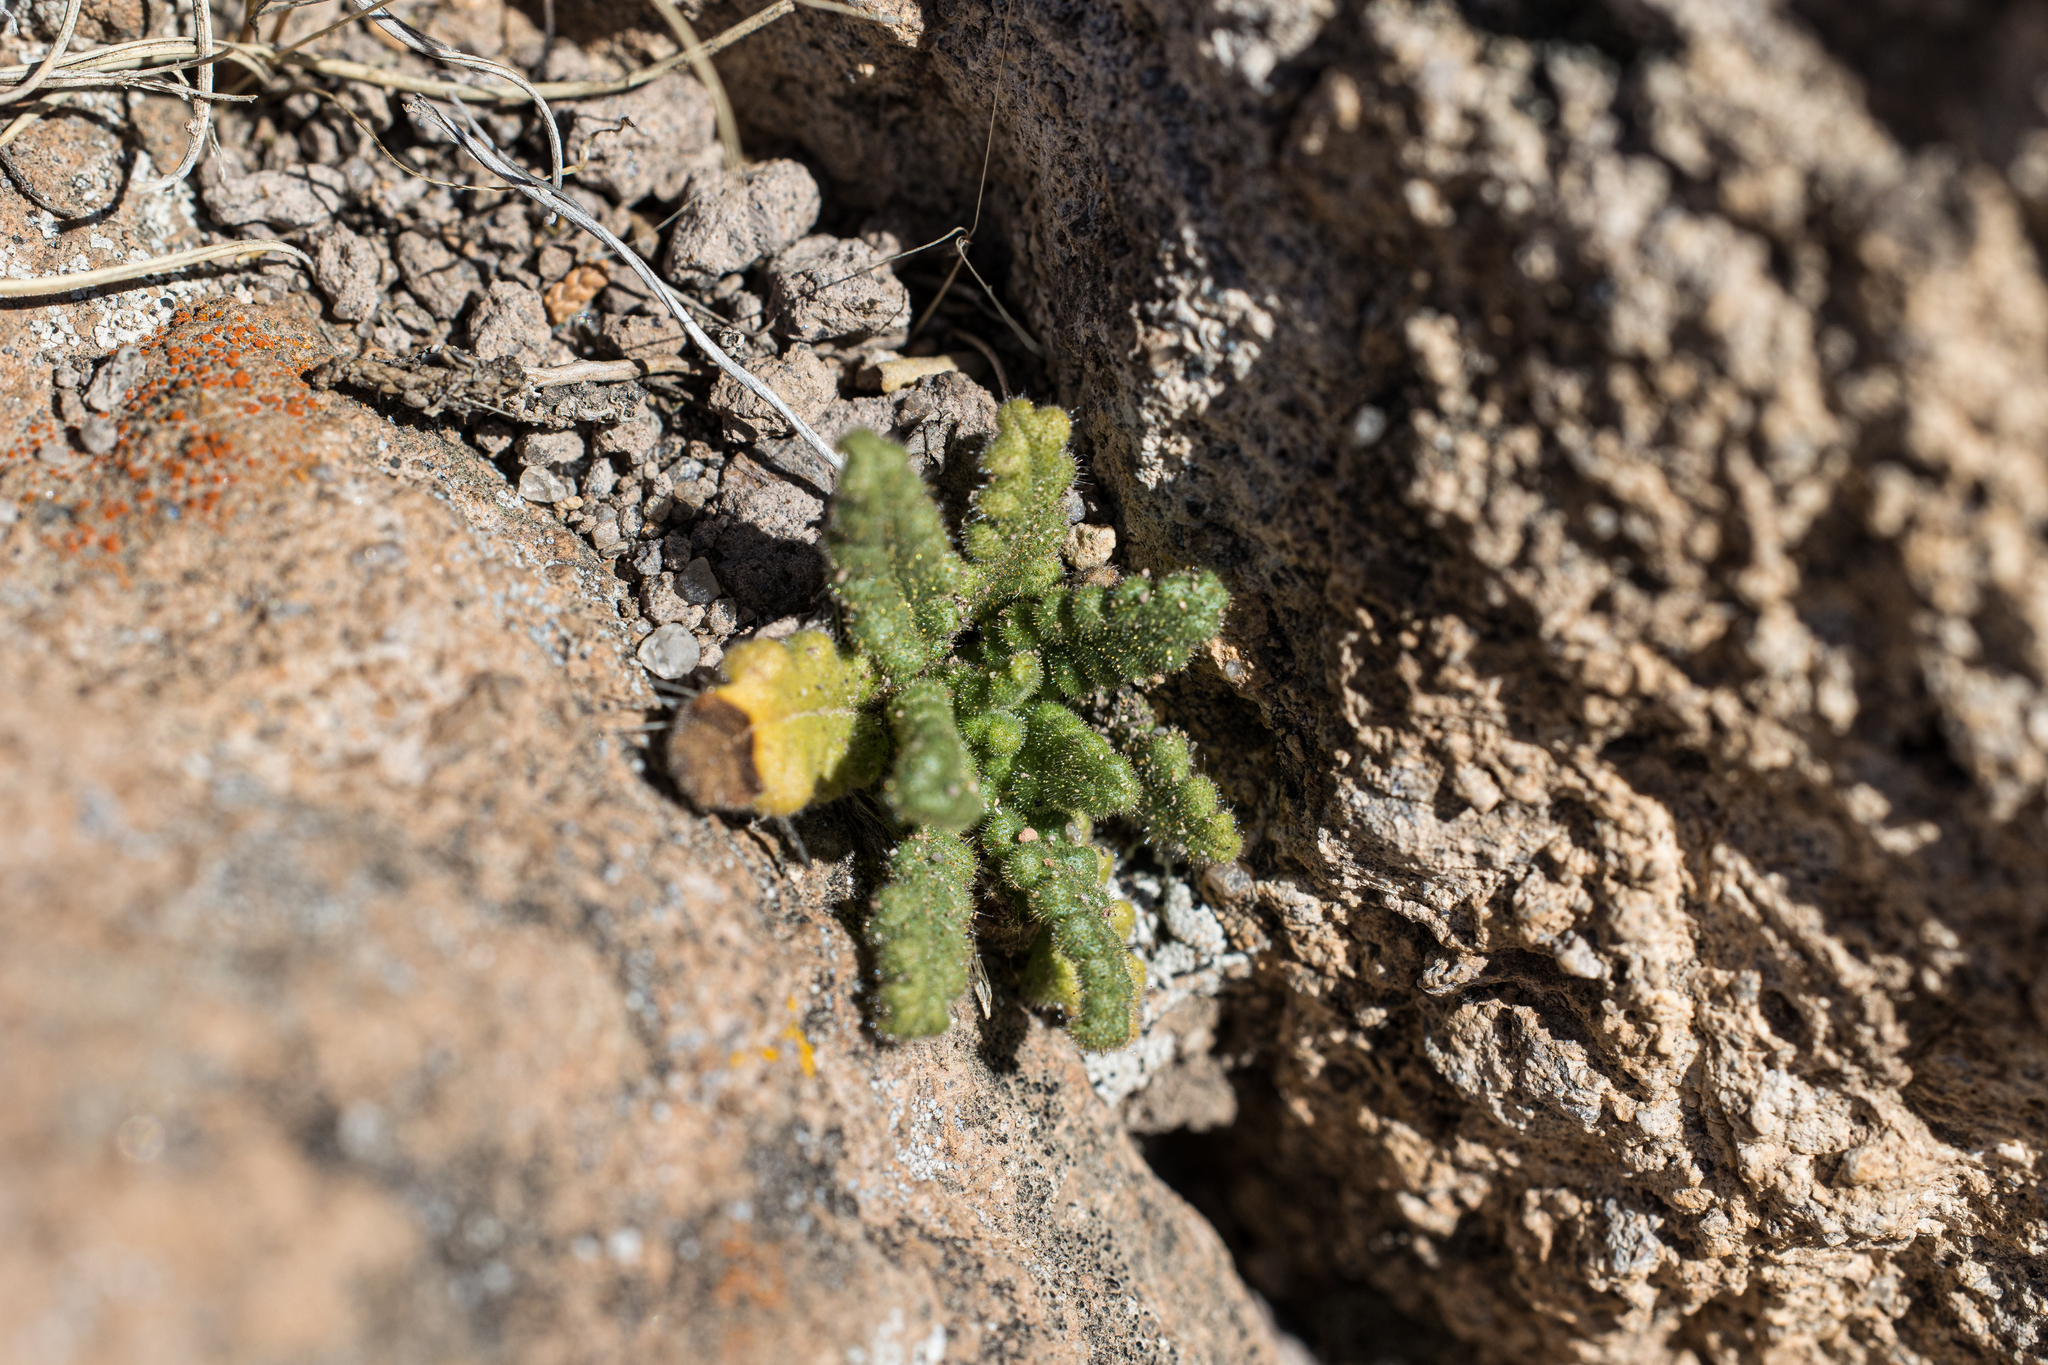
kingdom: Plantae
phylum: Tracheophyta
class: Magnoliopsida
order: Boraginales
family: Hydrophyllaceae
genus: Phacelia
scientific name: Phacelia integrifolia
